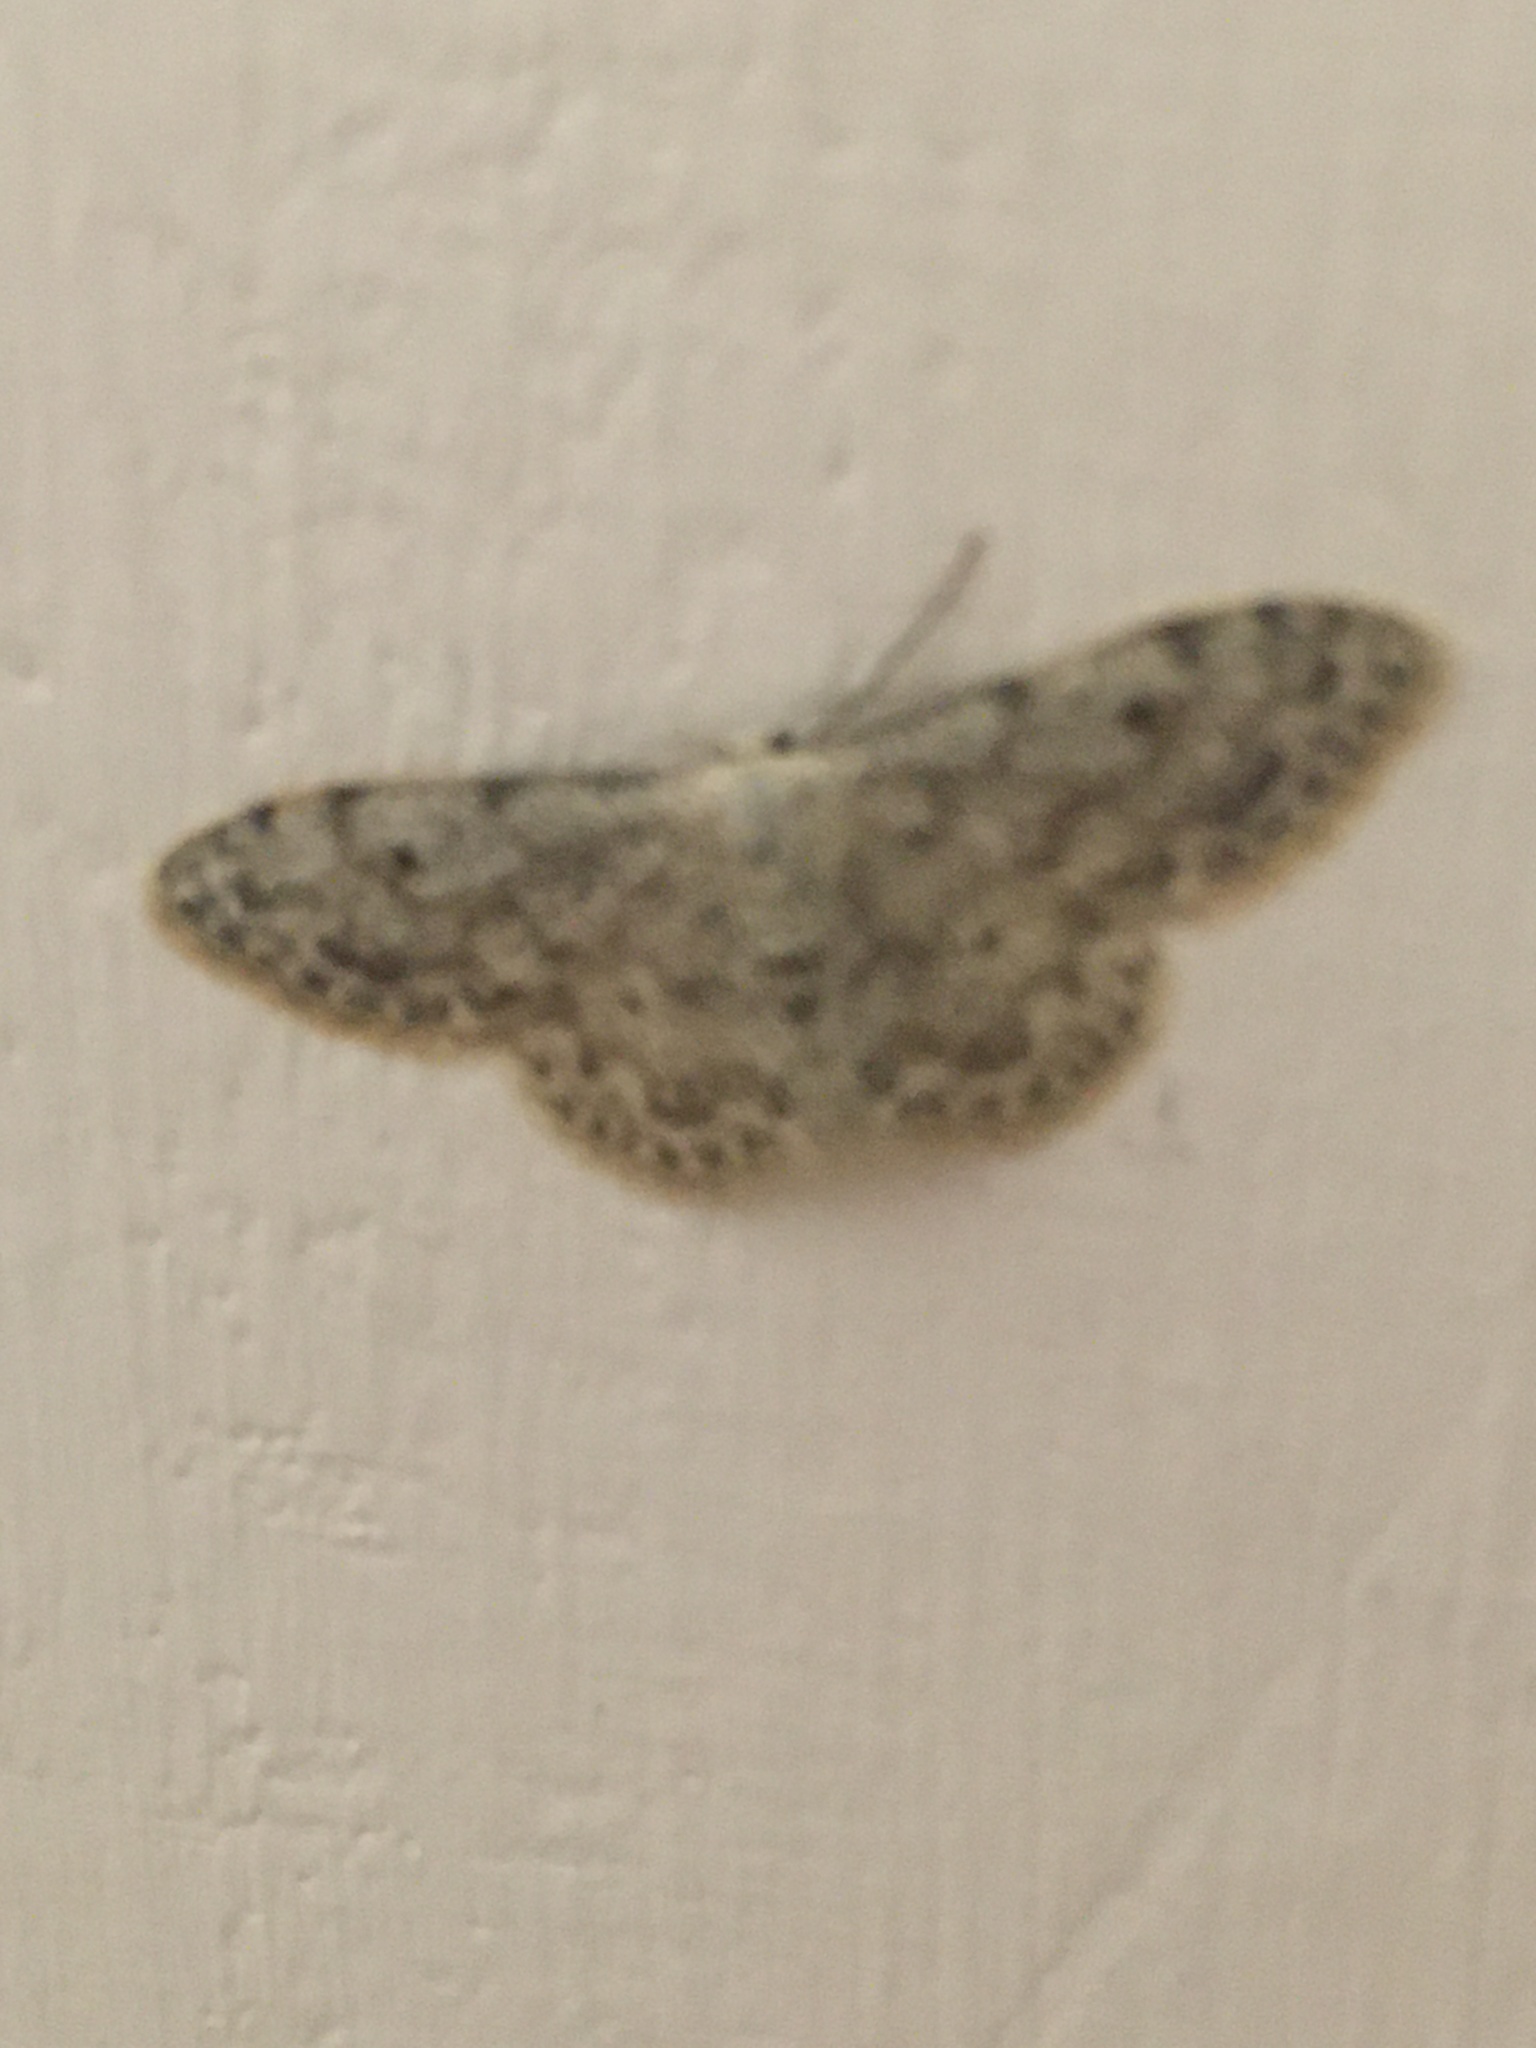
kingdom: Animalia
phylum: Arthropoda
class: Insecta
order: Lepidoptera
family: Geometridae
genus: Idaea
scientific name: Idaea camparia
